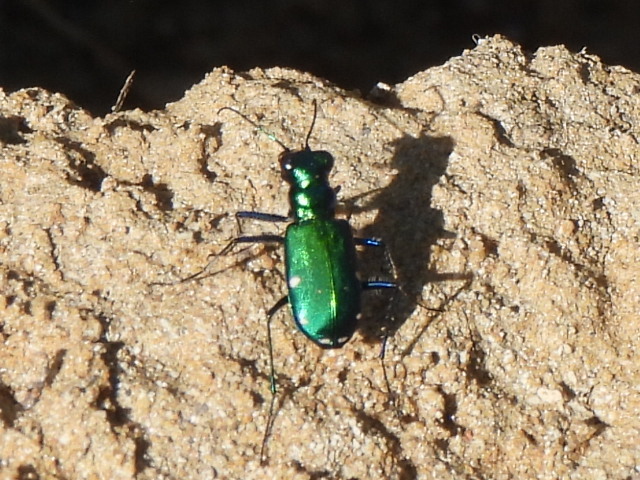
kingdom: Animalia
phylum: Arthropoda
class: Insecta
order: Coleoptera
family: Carabidae
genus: Cicindela
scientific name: Cicindela sexguttata
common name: Six-spotted tiger beetle
